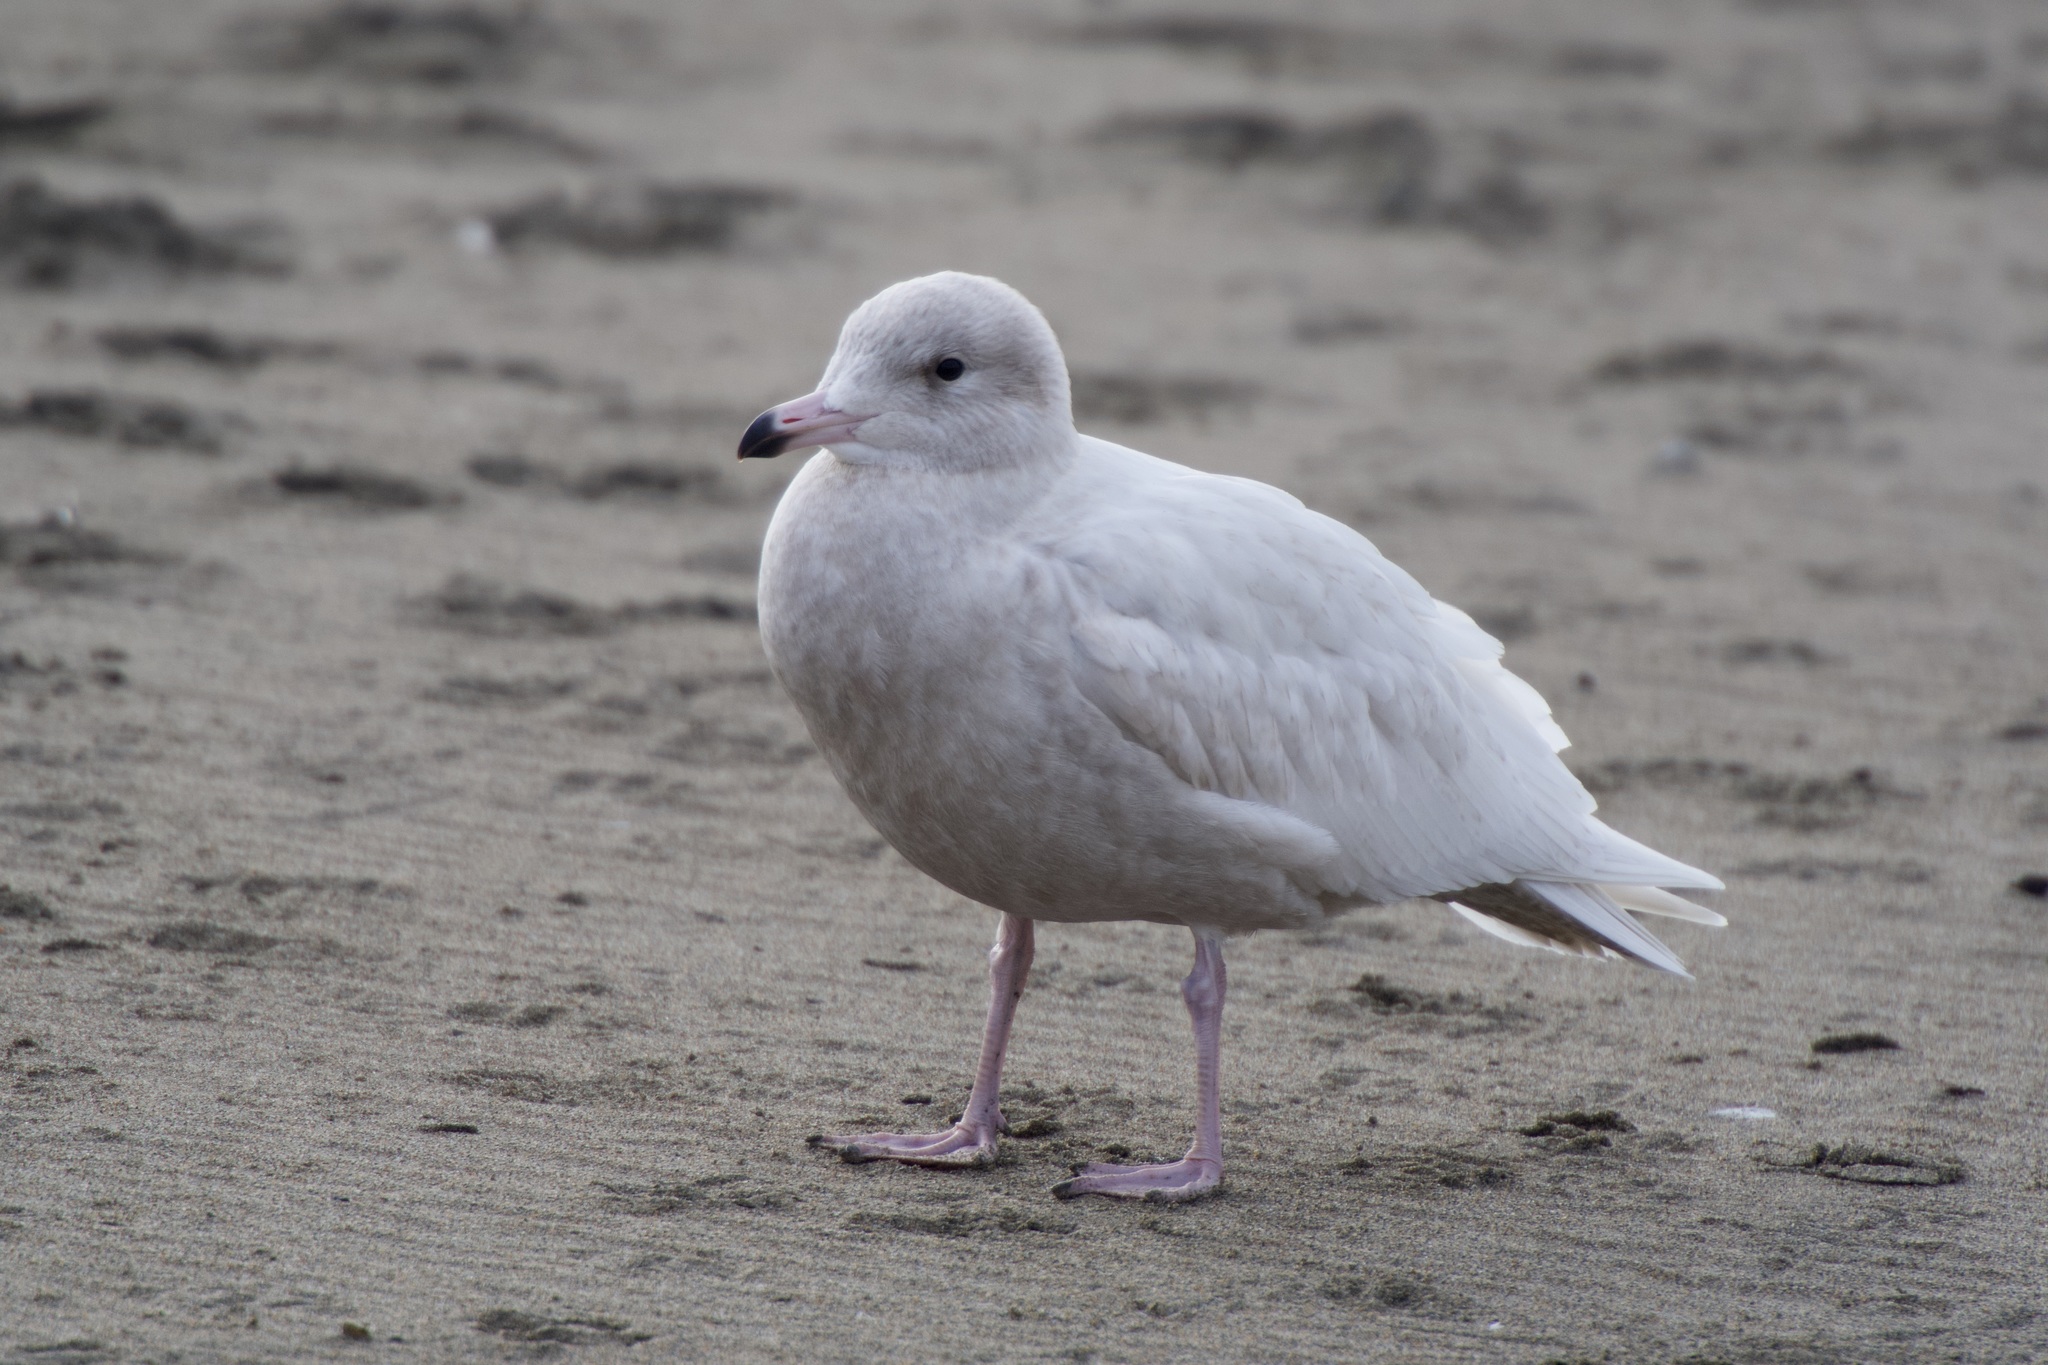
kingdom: Animalia
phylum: Chordata
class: Aves
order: Charadriiformes
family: Laridae
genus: Larus
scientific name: Larus hyperboreus
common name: Glaucous gull
